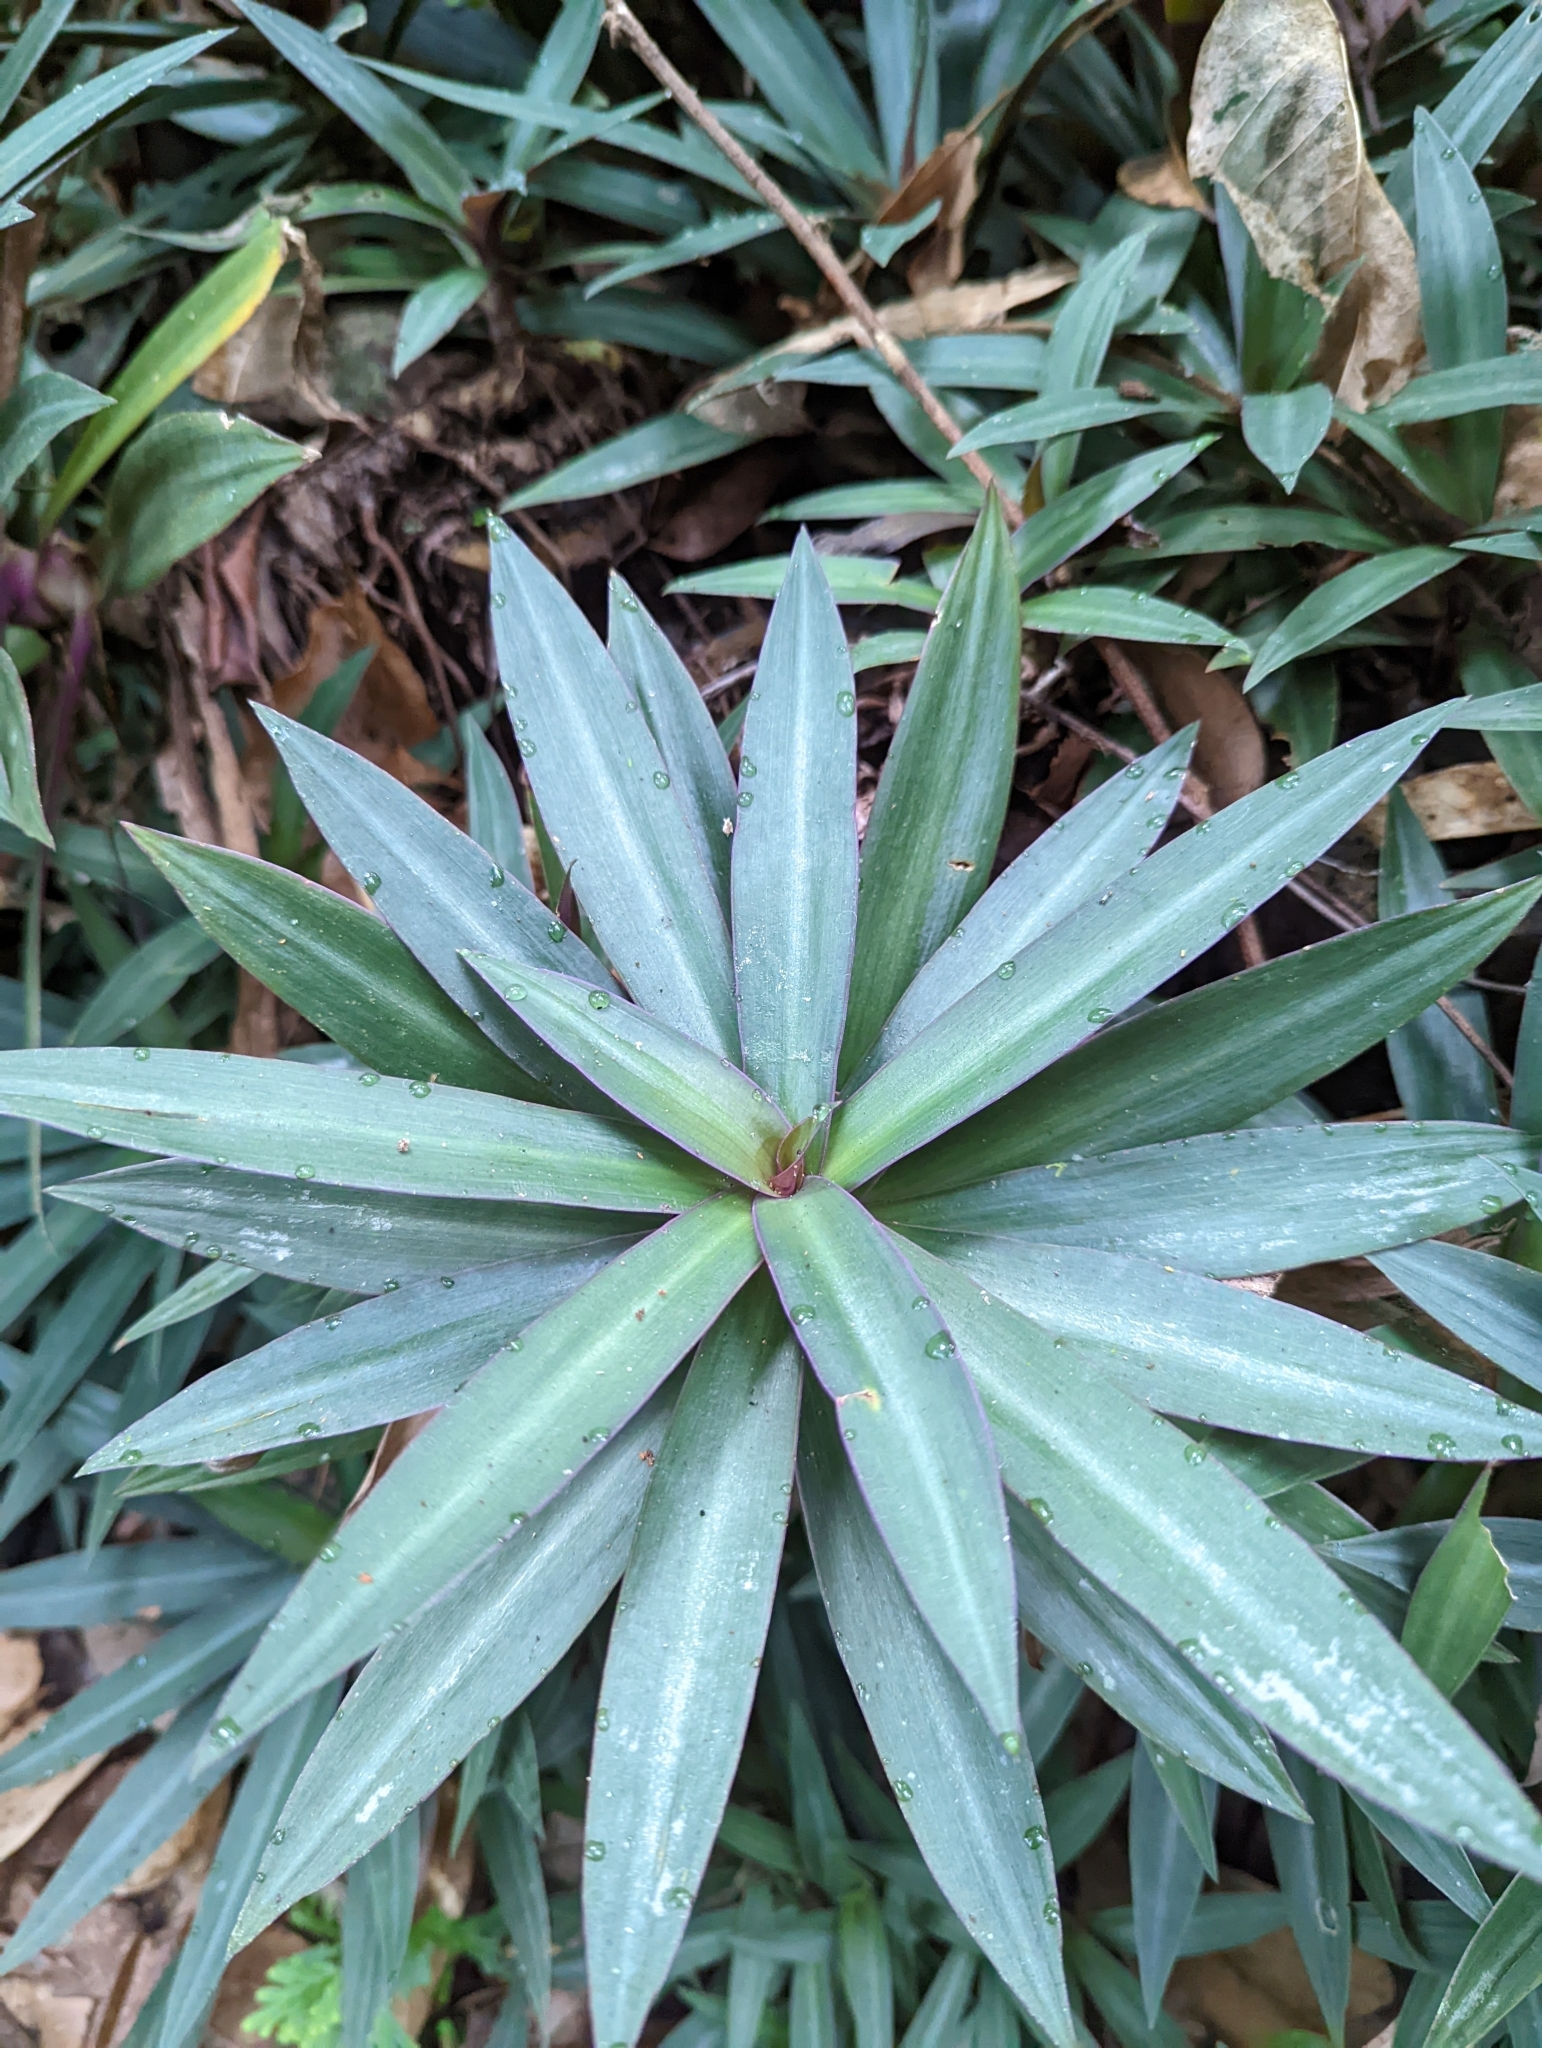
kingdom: Plantae
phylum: Tracheophyta
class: Liliopsida
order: Commelinales
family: Commelinaceae
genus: Tradescantia
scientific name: Tradescantia spathacea
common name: Boatlily
